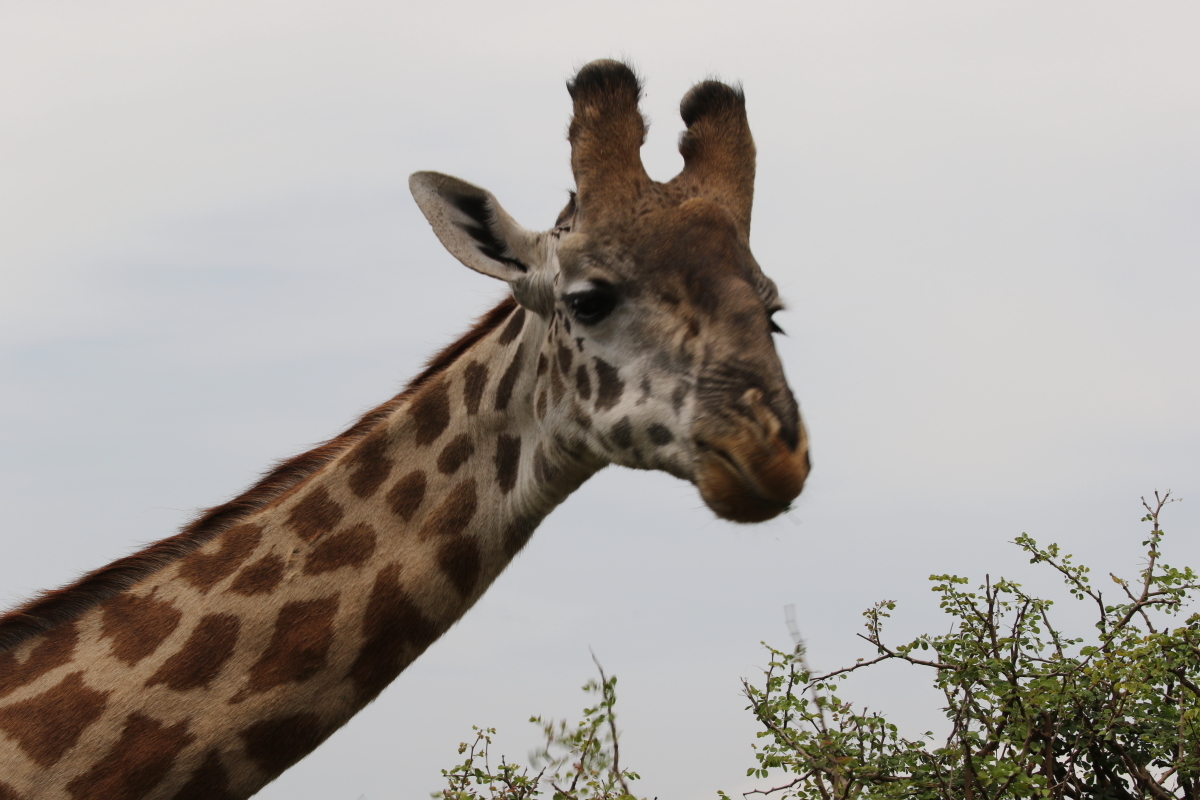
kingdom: Animalia
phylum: Chordata
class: Mammalia
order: Artiodactyla
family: Giraffidae
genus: Giraffa
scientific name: Giraffa tippelskirchi
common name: Masai giraffe
